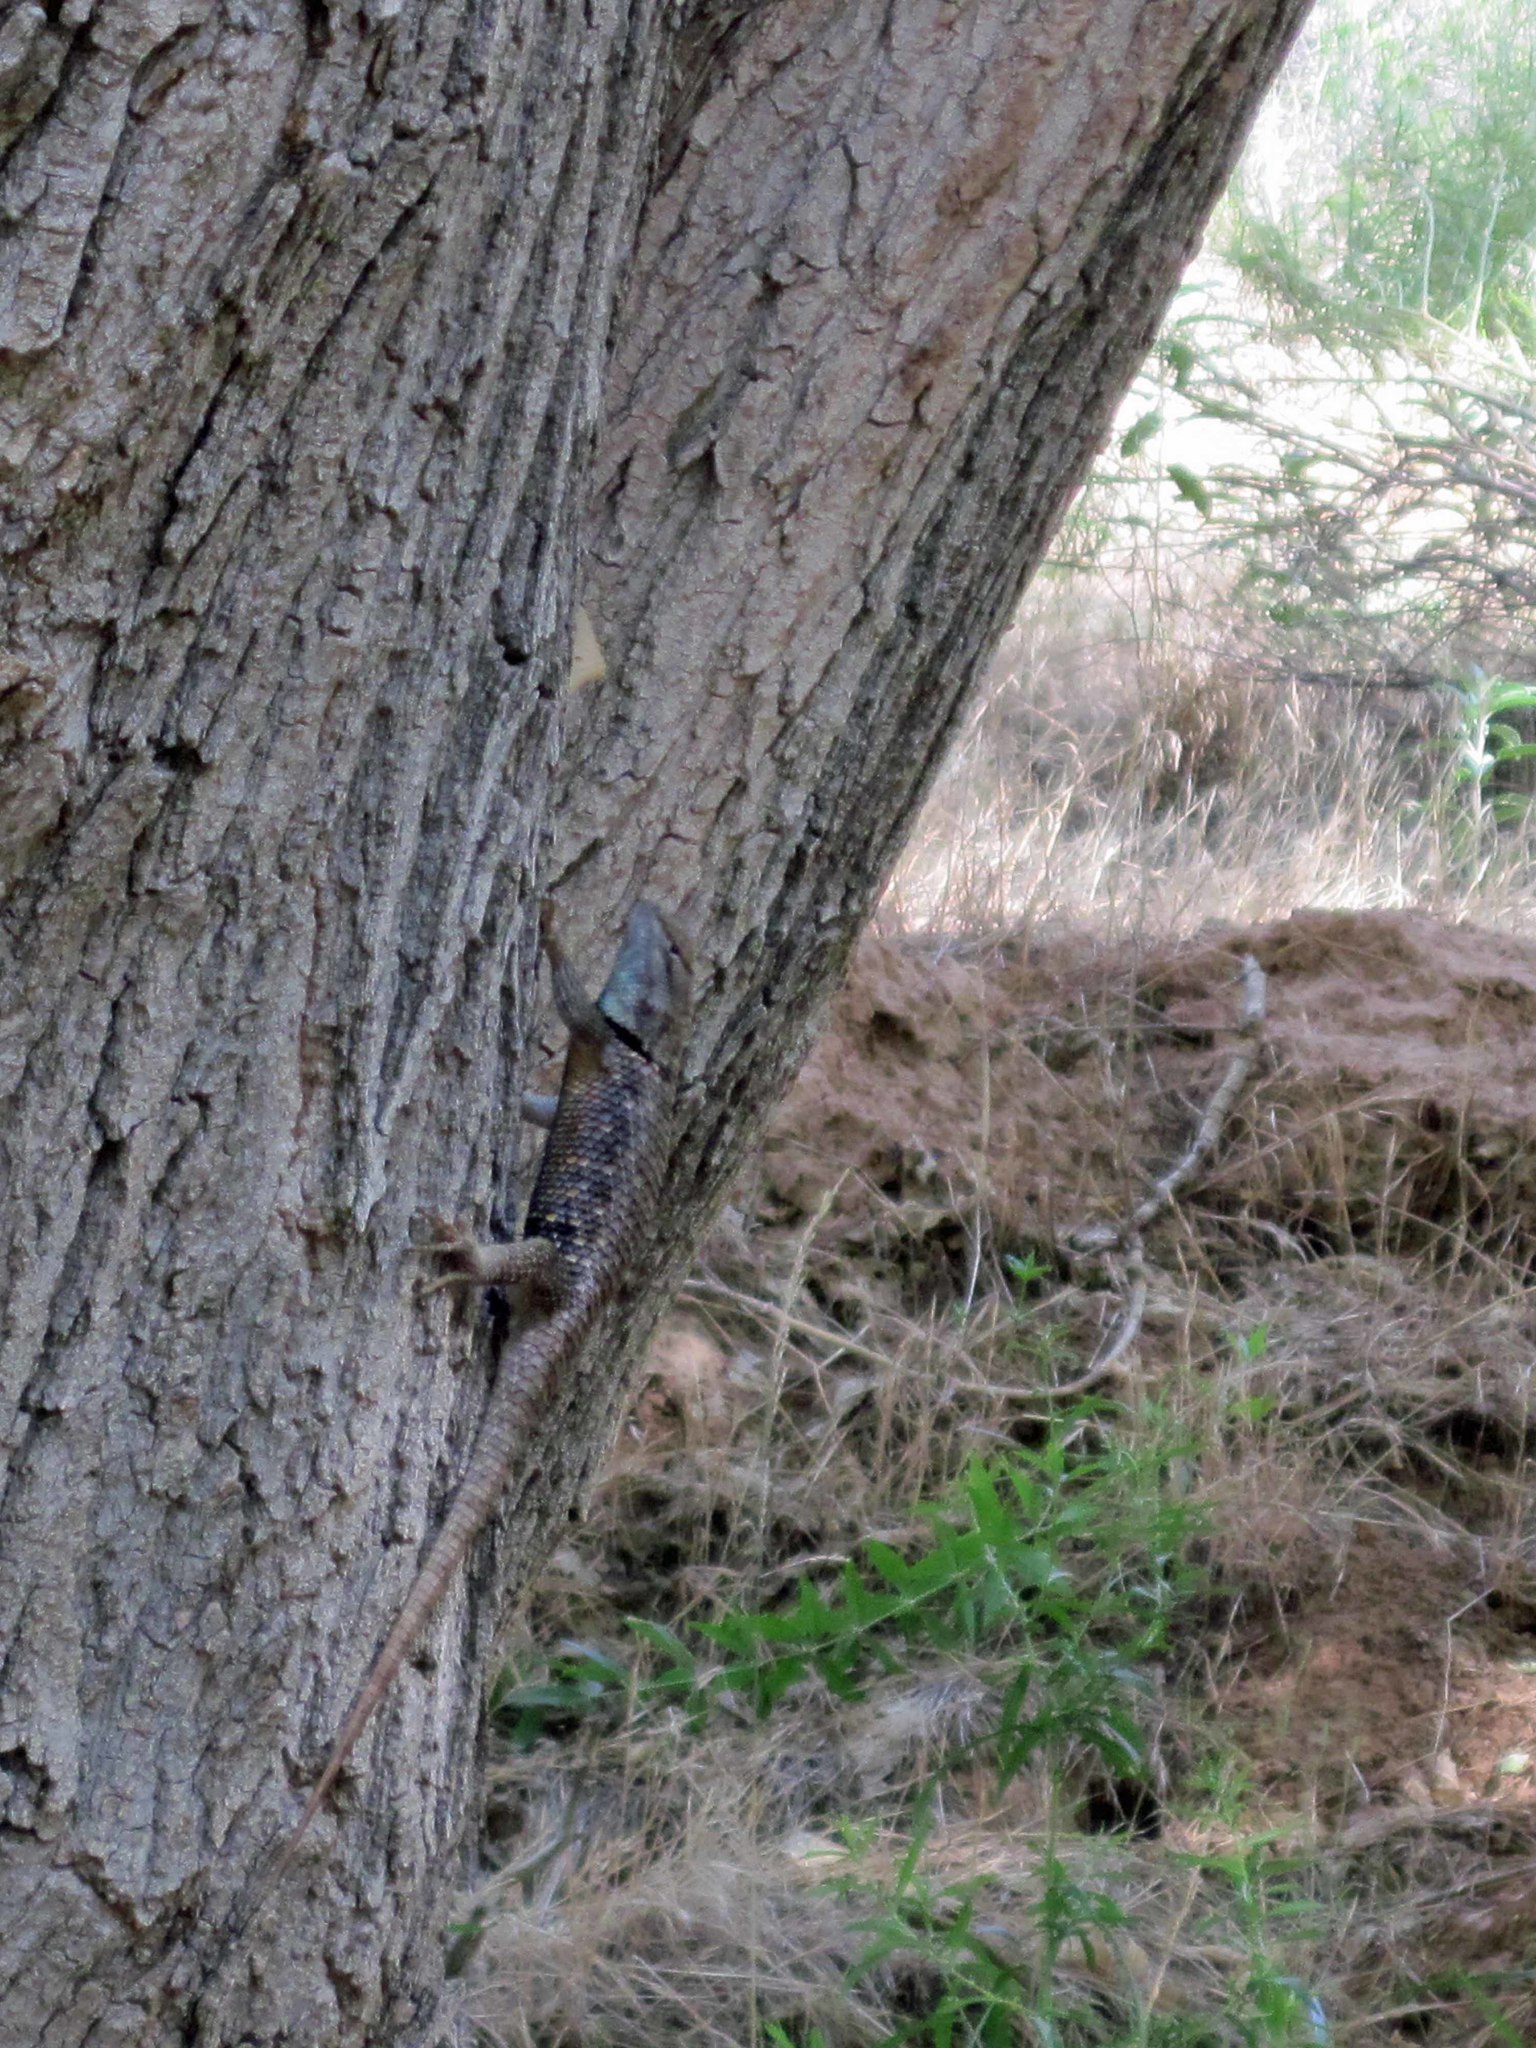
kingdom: Animalia
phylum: Chordata
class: Squamata
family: Phrynosomatidae
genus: Sceloporus
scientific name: Sceloporus uniformis
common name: Yellow-backed spiny lizard
